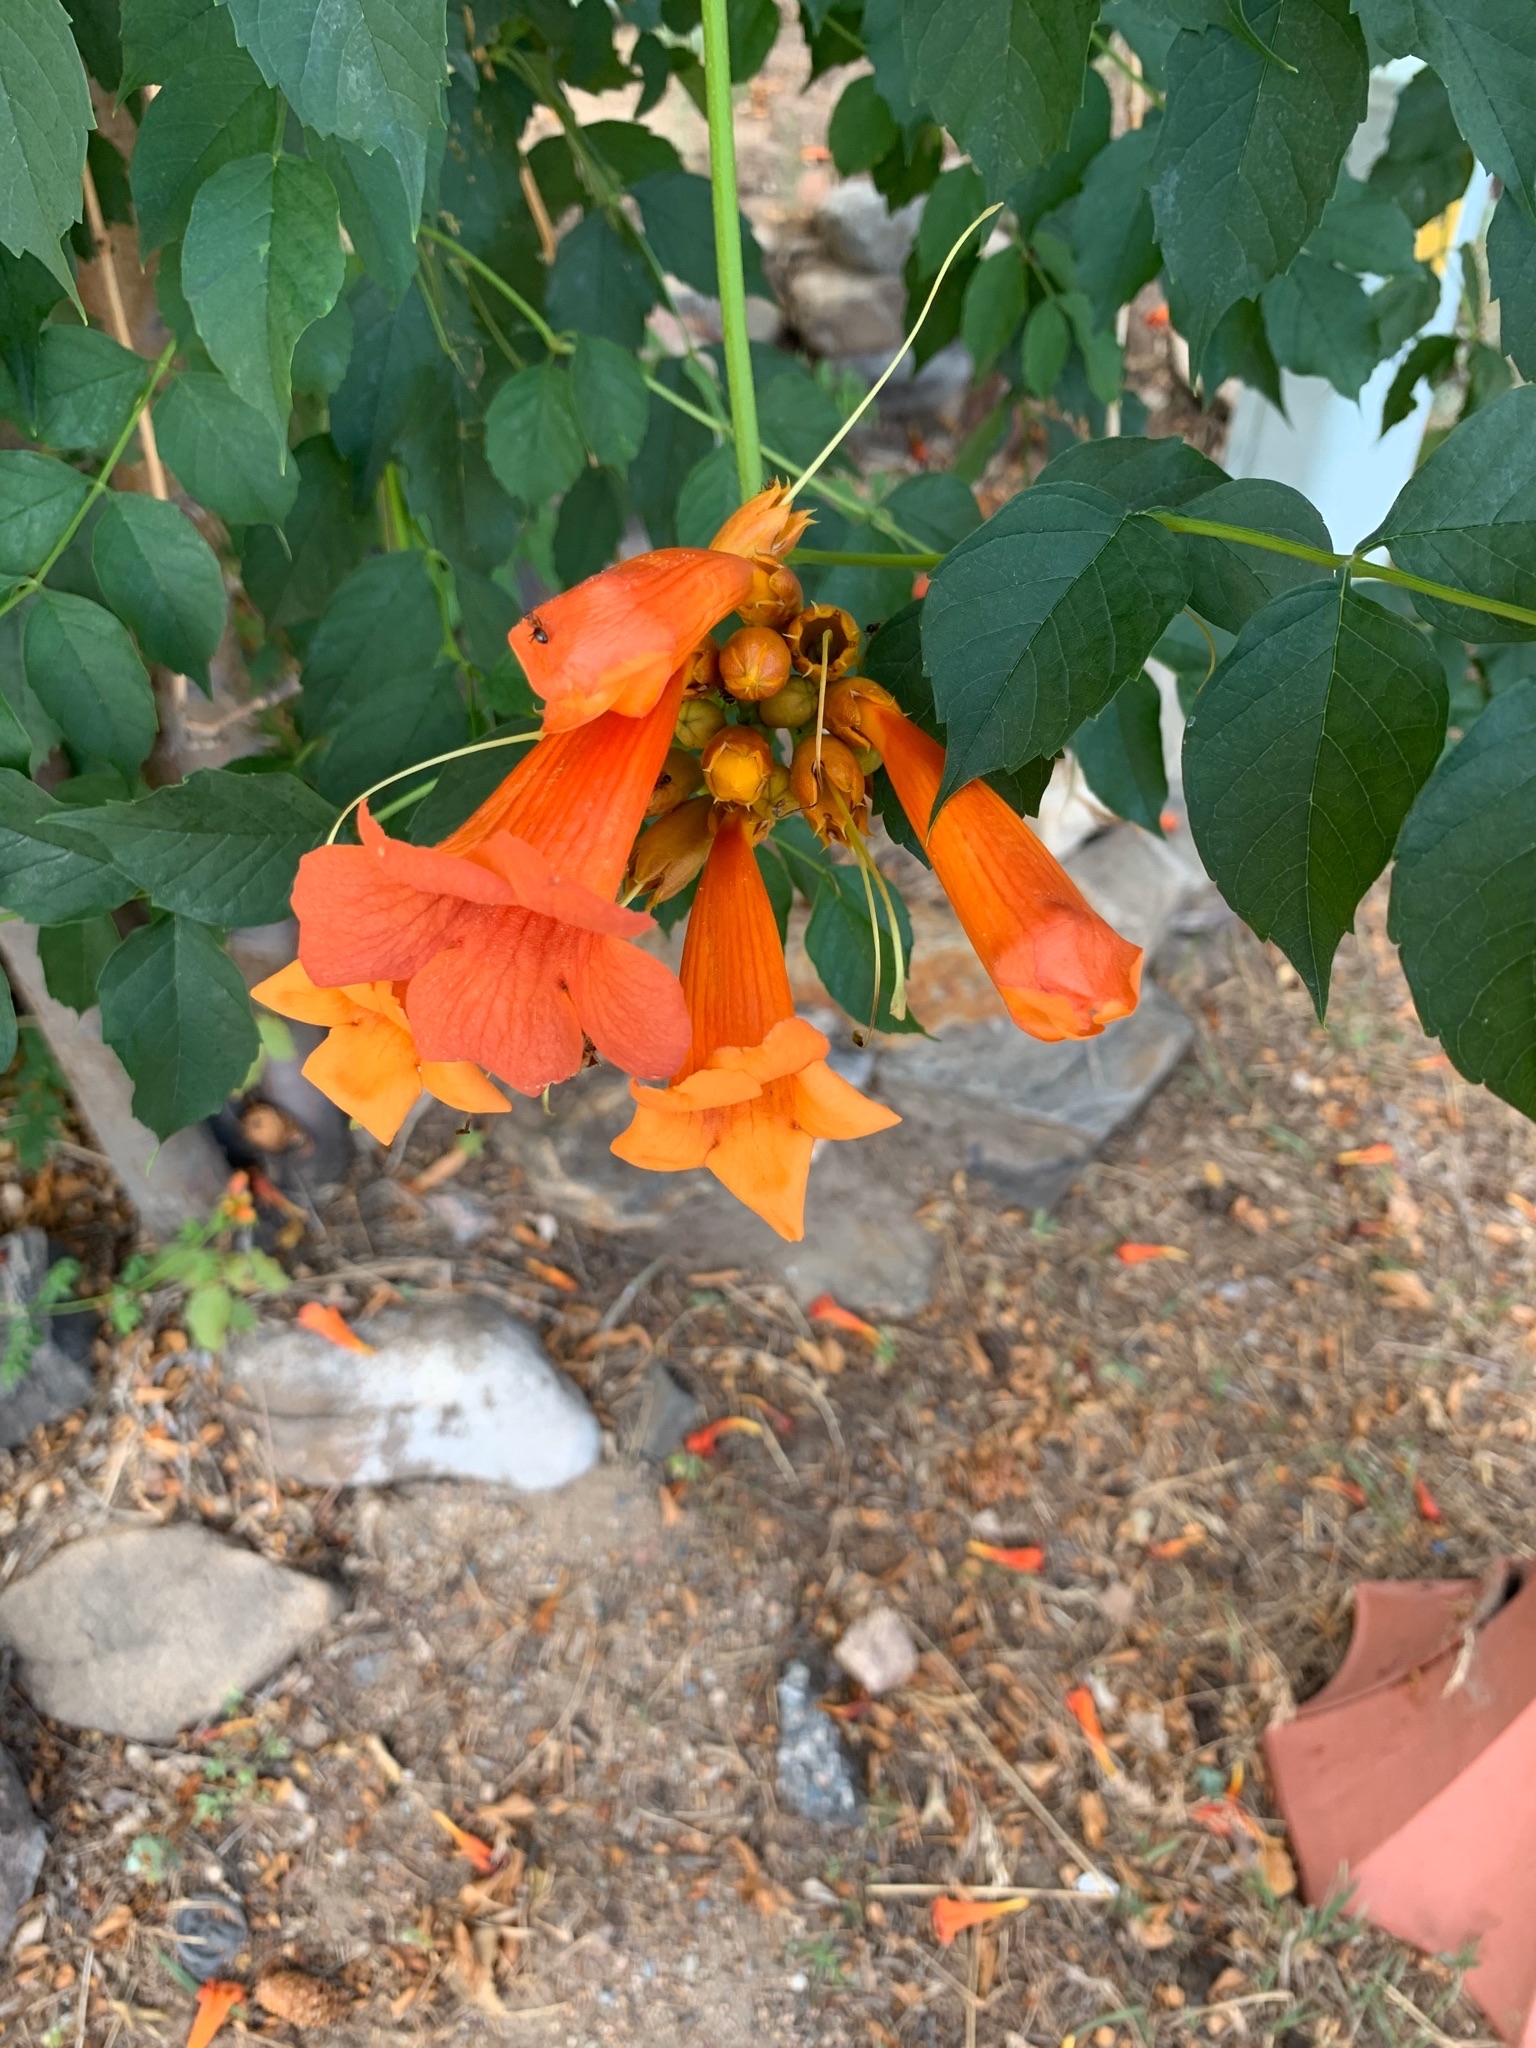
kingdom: Plantae
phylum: Tracheophyta
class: Magnoliopsida
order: Lamiales
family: Bignoniaceae
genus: Campsis
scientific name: Campsis radicans
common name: Trumpet-creeper
